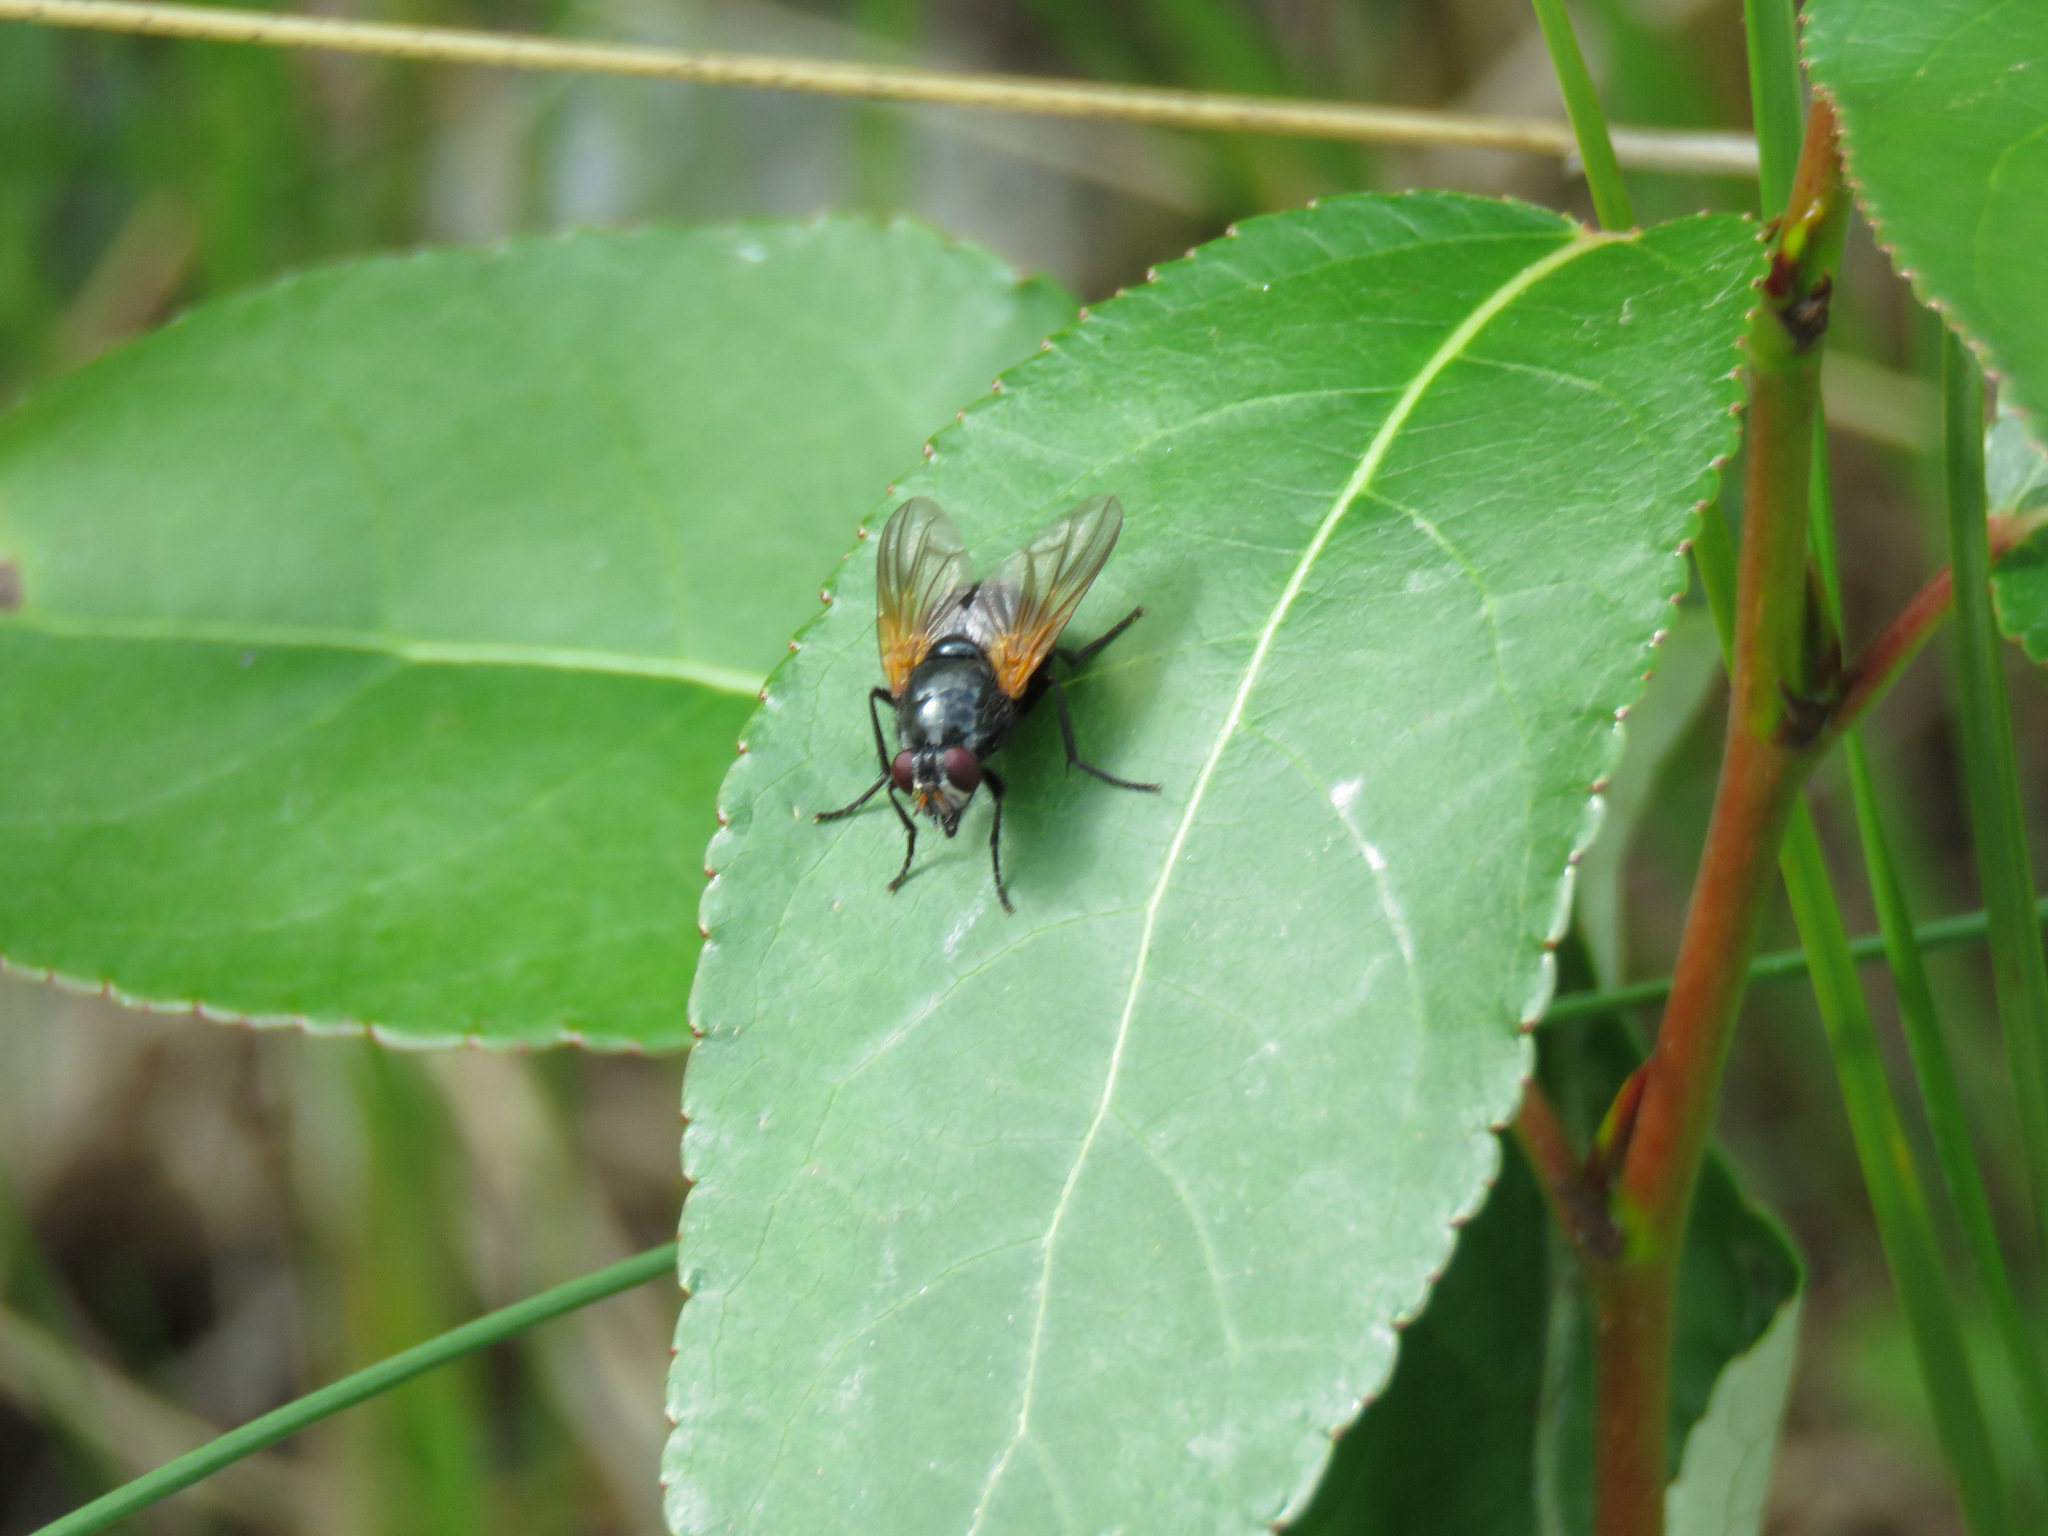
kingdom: Animalia
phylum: Arthropoda
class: Insecta
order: Diptera
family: Muscidae
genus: Mesembrina
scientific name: Mesembrina latreillii
